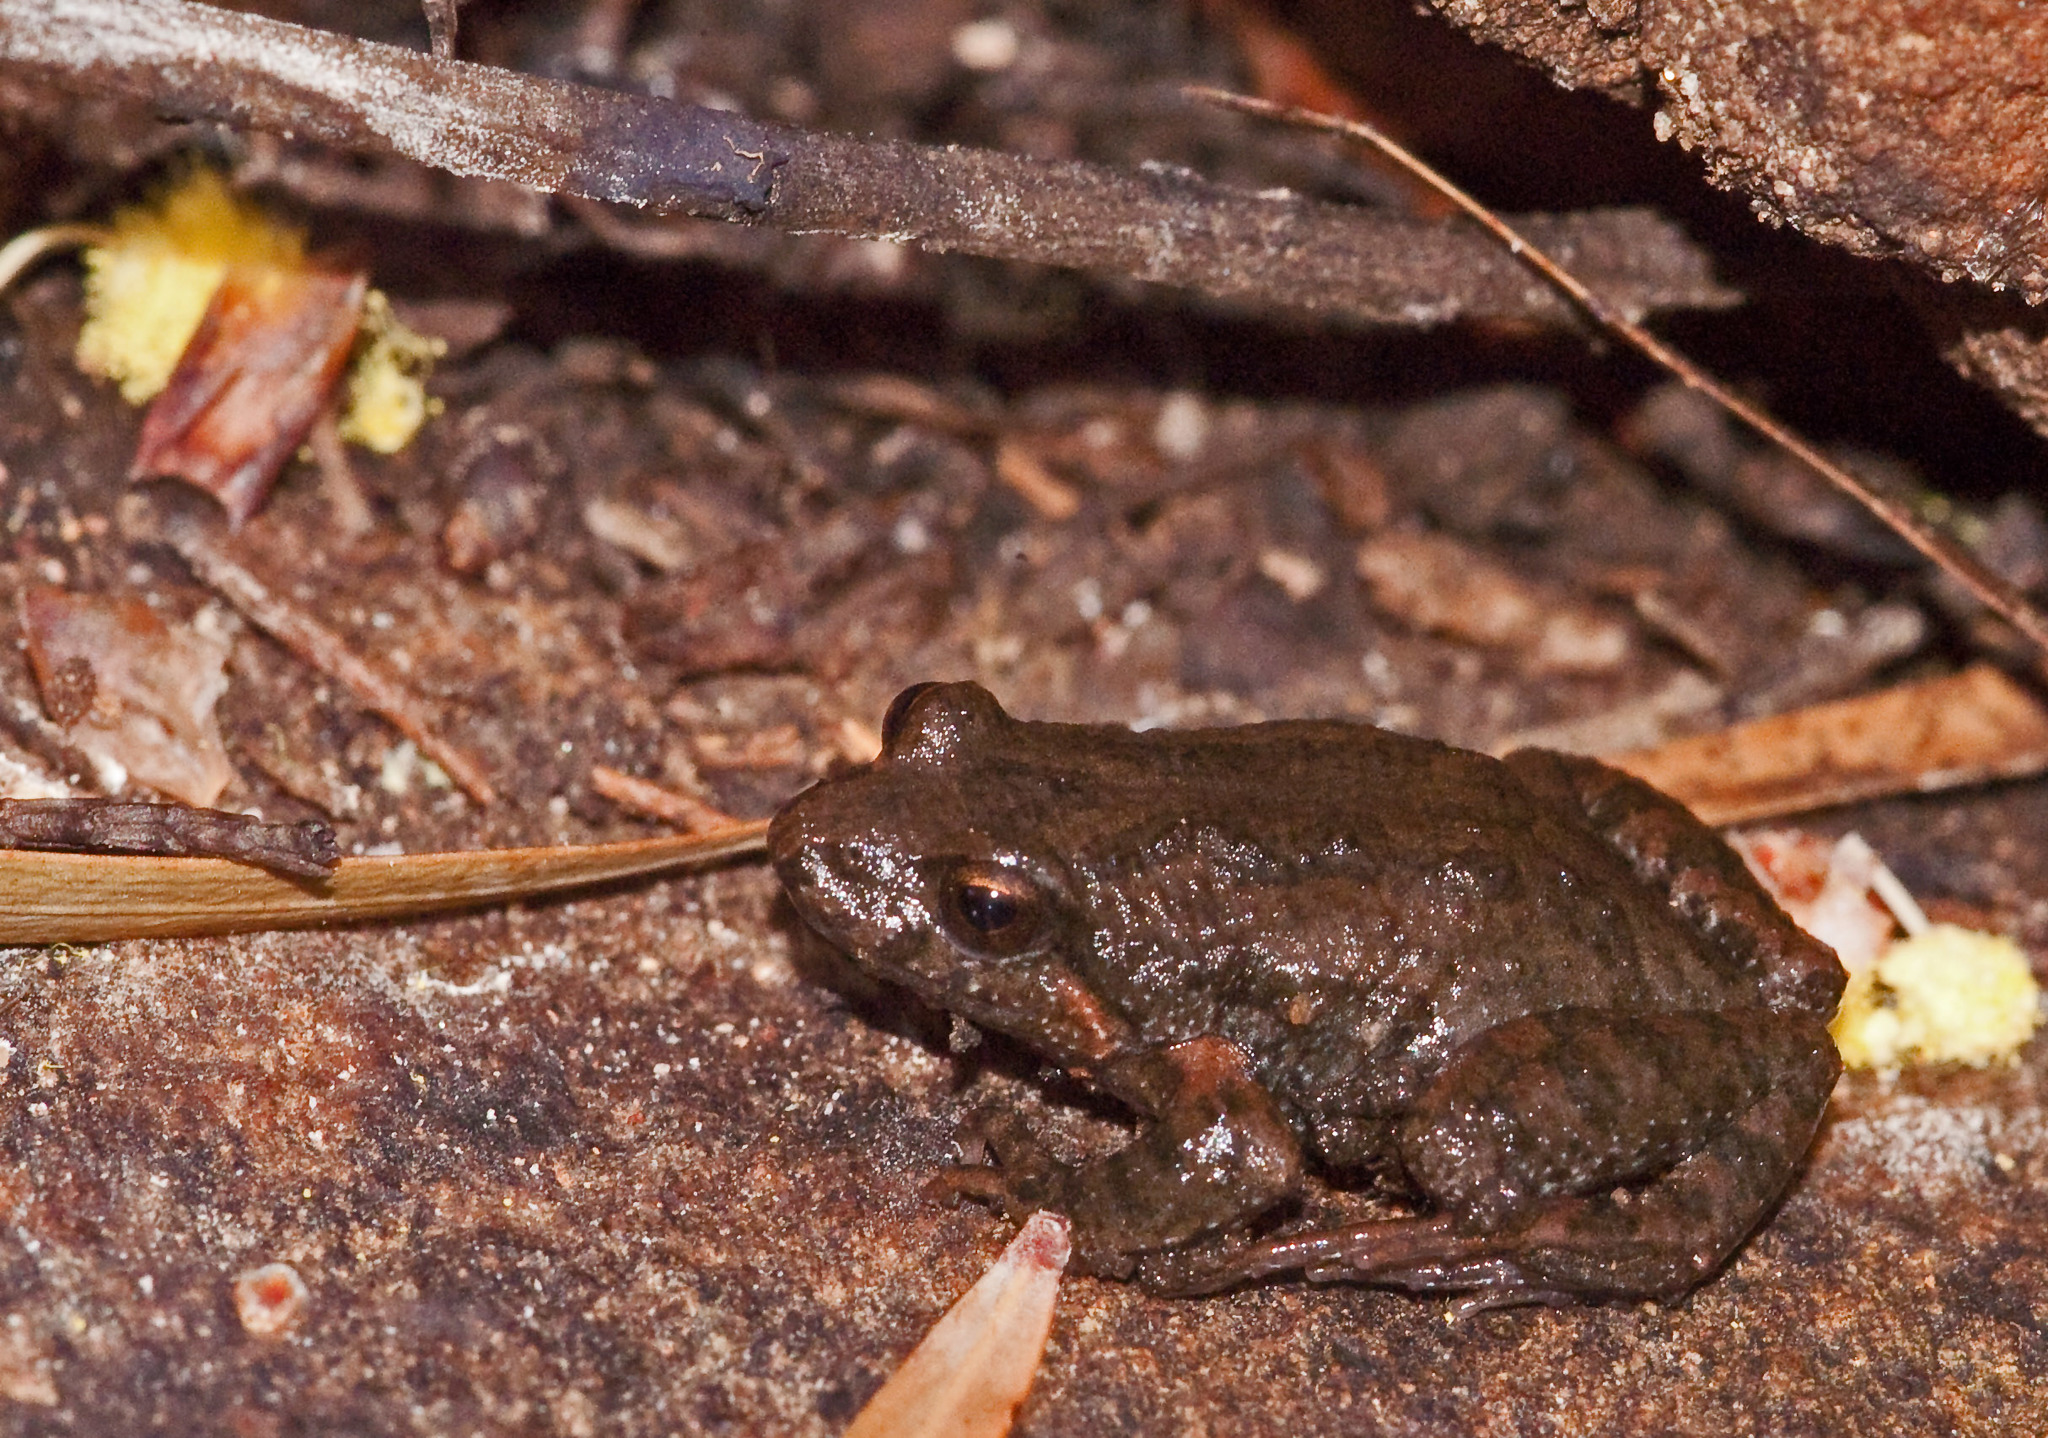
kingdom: Animalia
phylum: Chordata
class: Amphibia
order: Anura
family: Myobatrachidae
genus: Crinia
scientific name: Crinia riparia
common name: Streambank froglet
